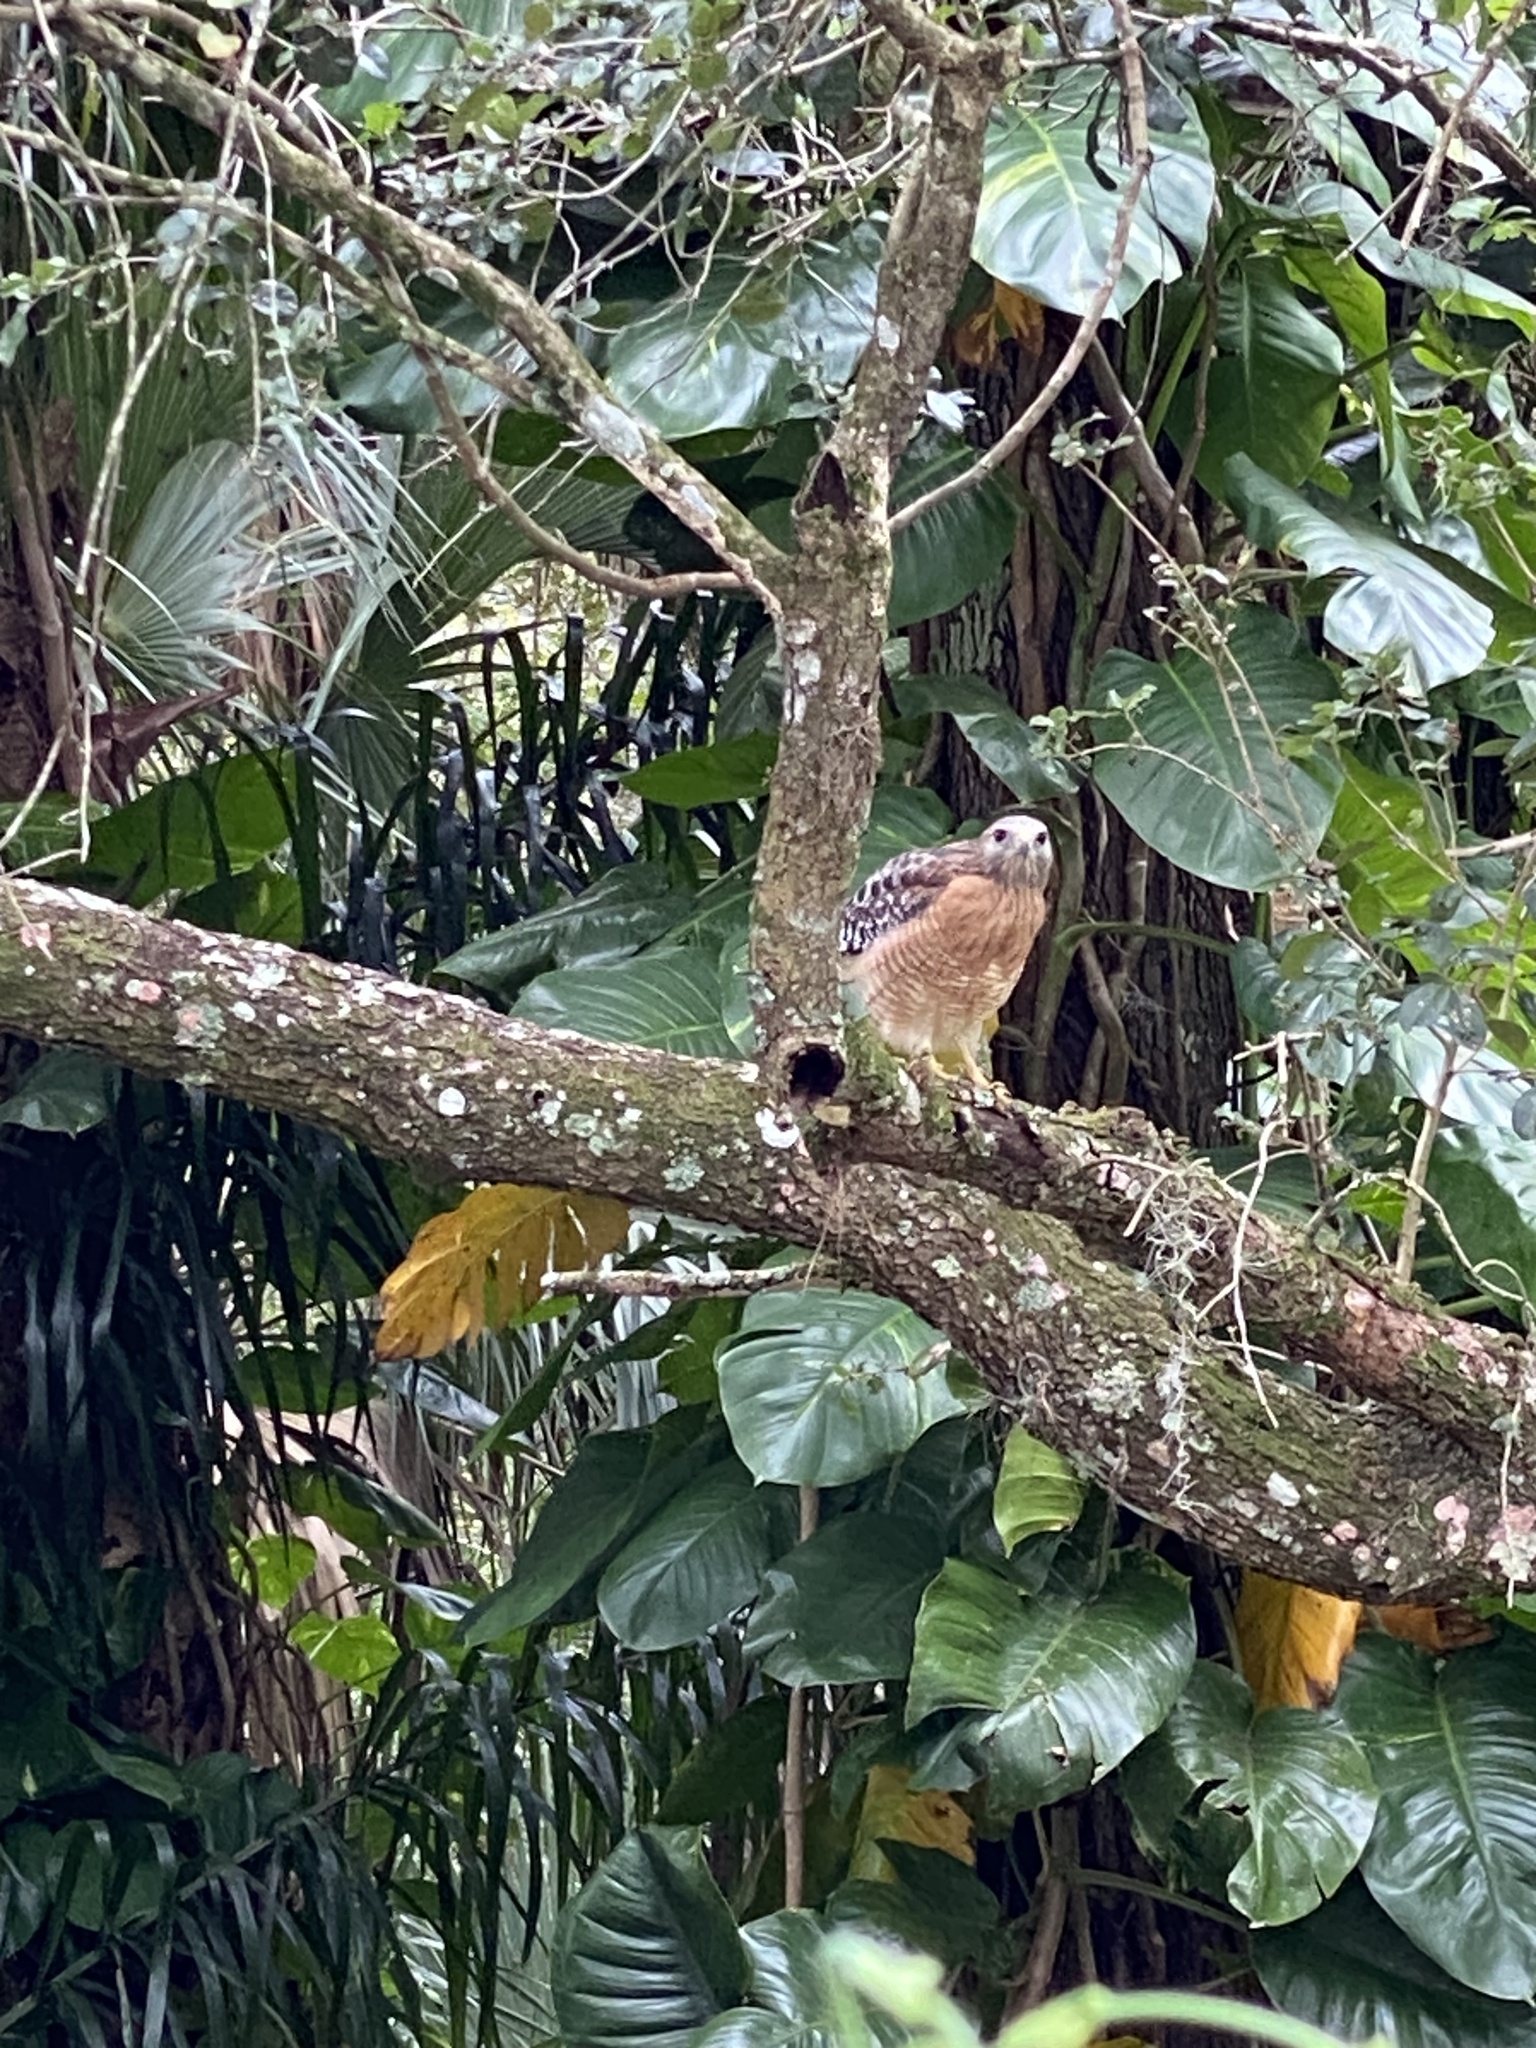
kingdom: Animalia
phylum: Chordata
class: Aves
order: Accipitriformes
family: Accipitridae
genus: Buteo
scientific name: Buteo lineatus
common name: Red-shouldered hawk
